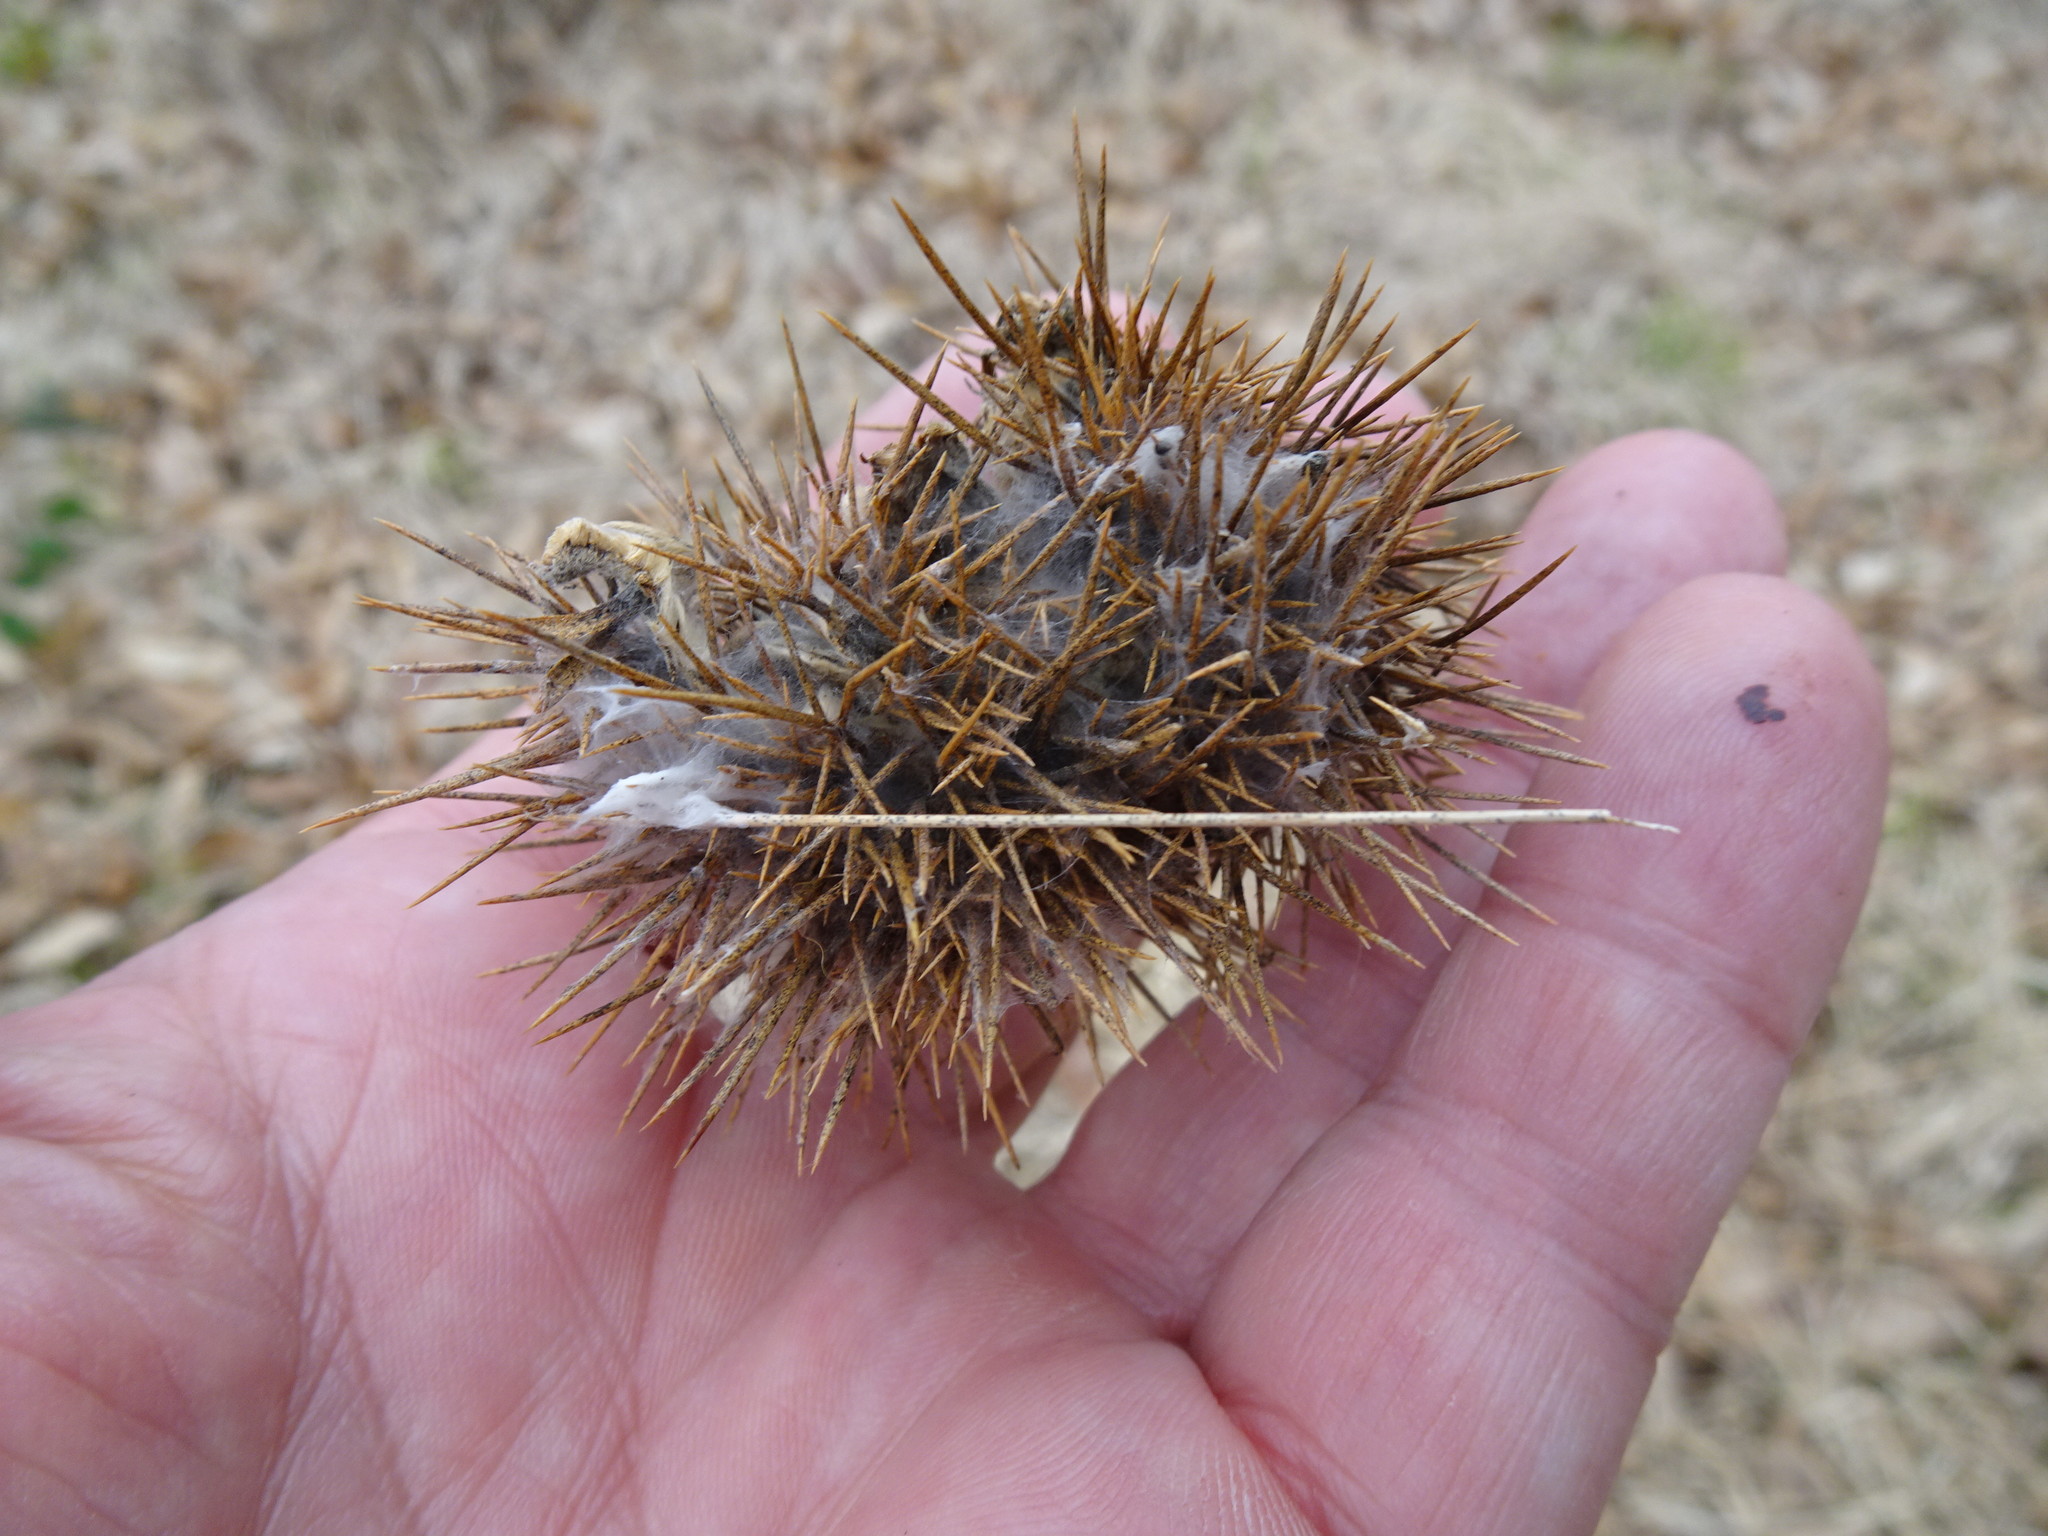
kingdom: Plantae
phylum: Tracheophyta
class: Magnoliopsida
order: Fagales
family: Fagaceae
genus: Castanea
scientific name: Castanea sativa
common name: Sweet chestnut
